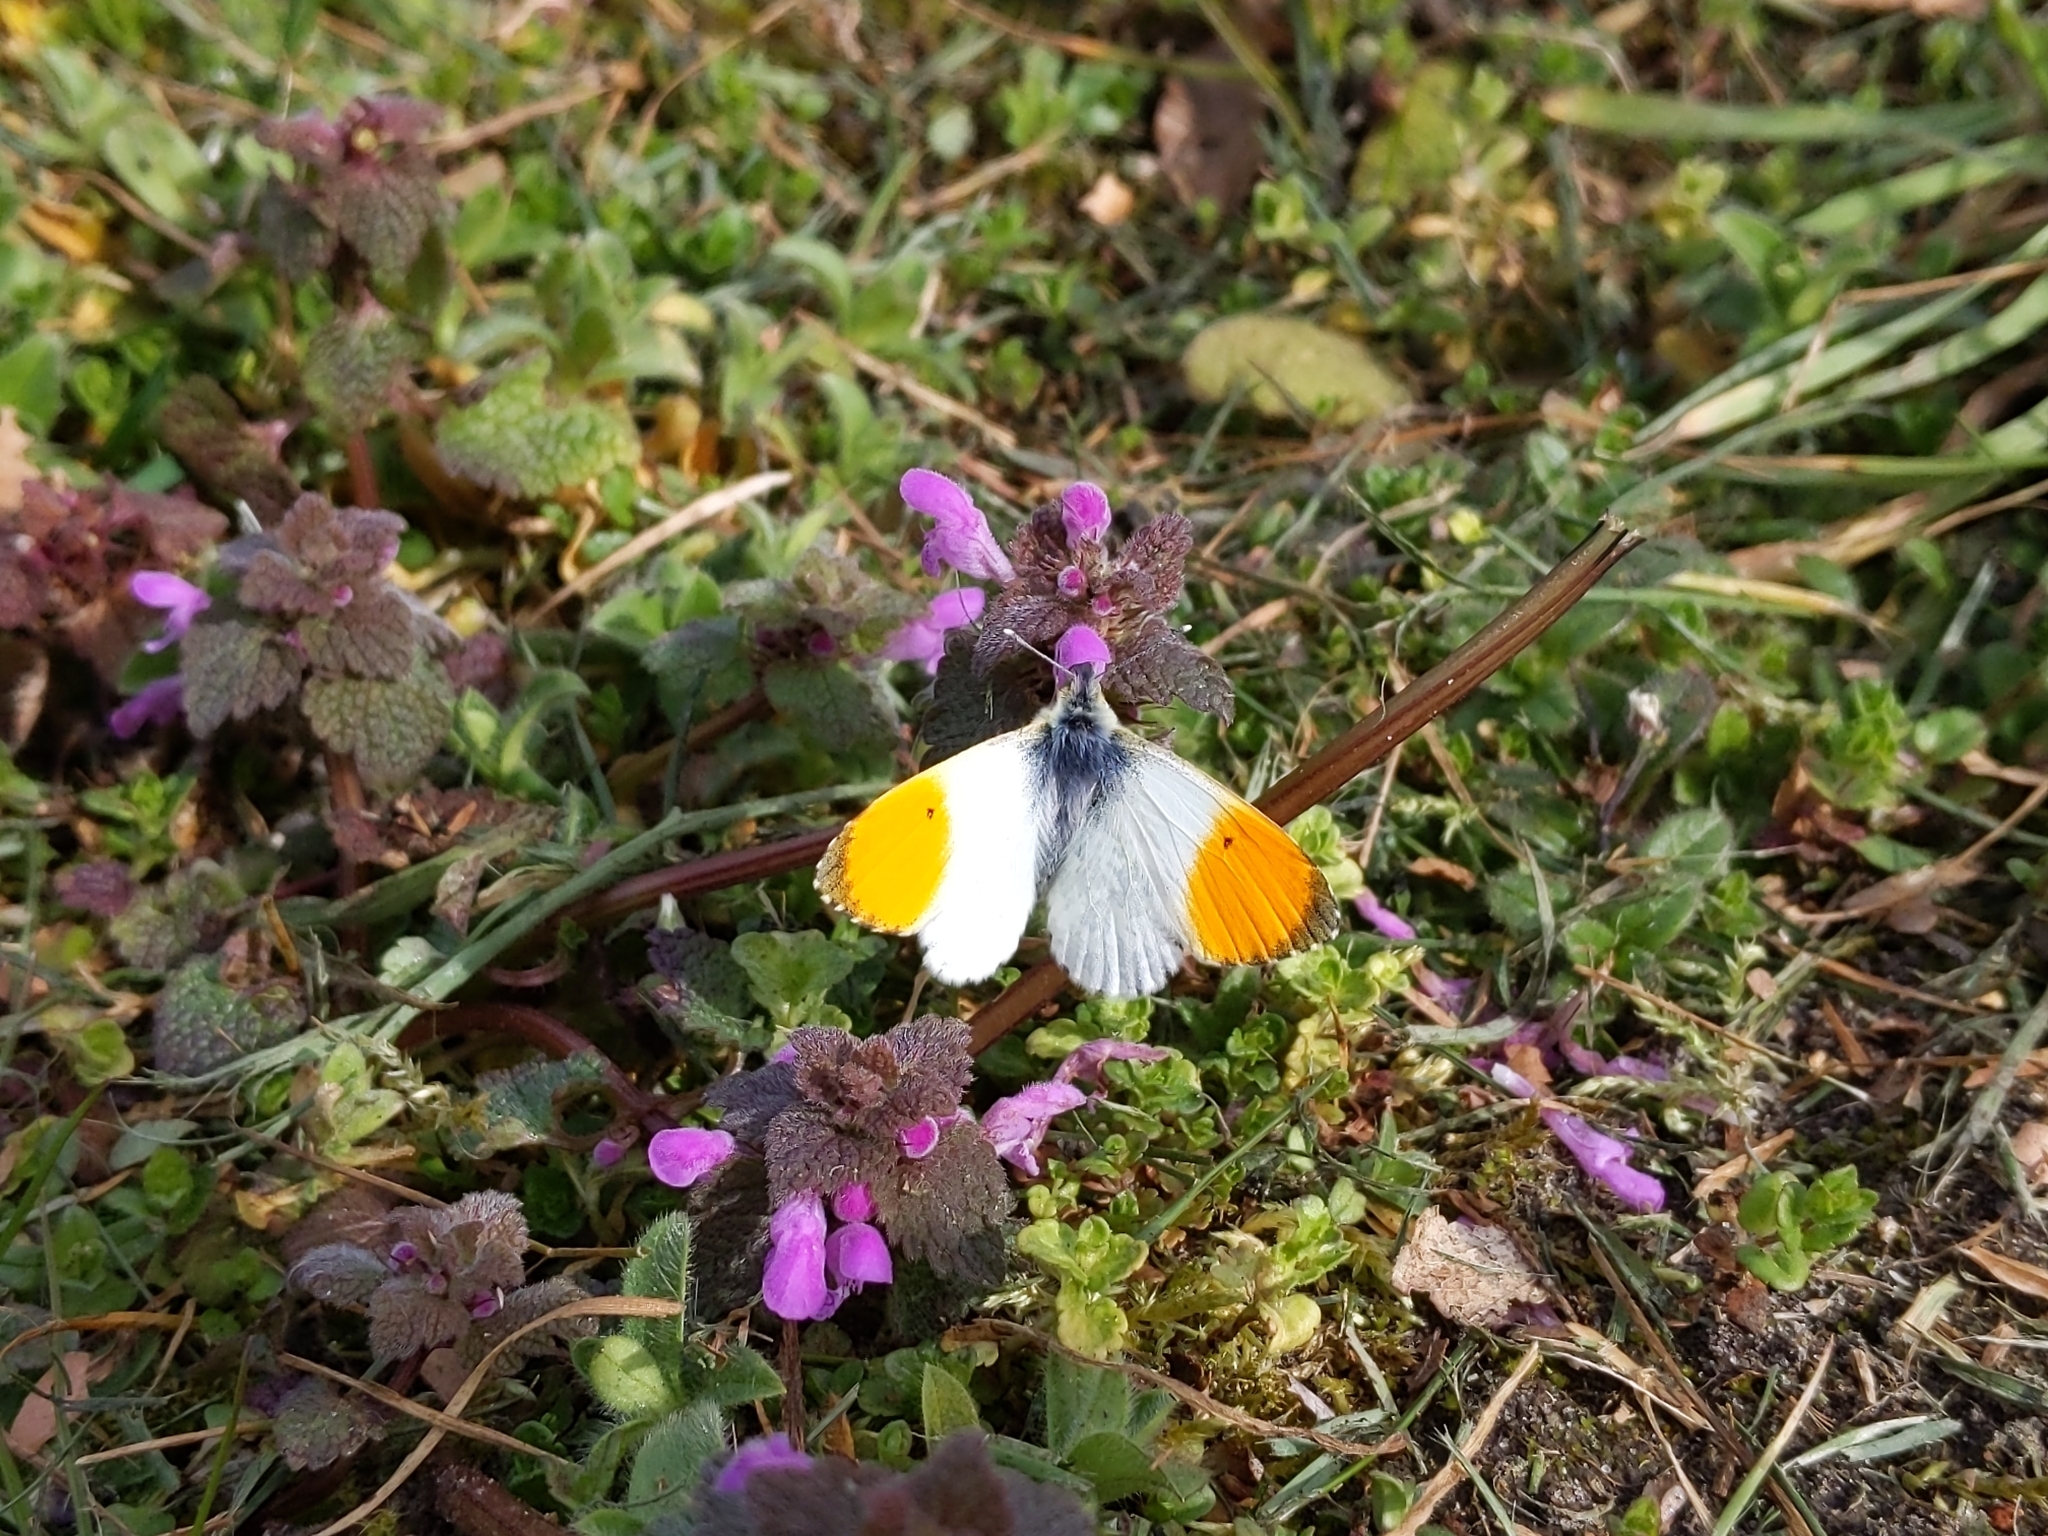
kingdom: Animalia
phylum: Arthropoda
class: Insecta
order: Lepidoptera
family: Pieridae
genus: Anthocharis
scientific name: Anthocharis cardamines
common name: Orange-tip
